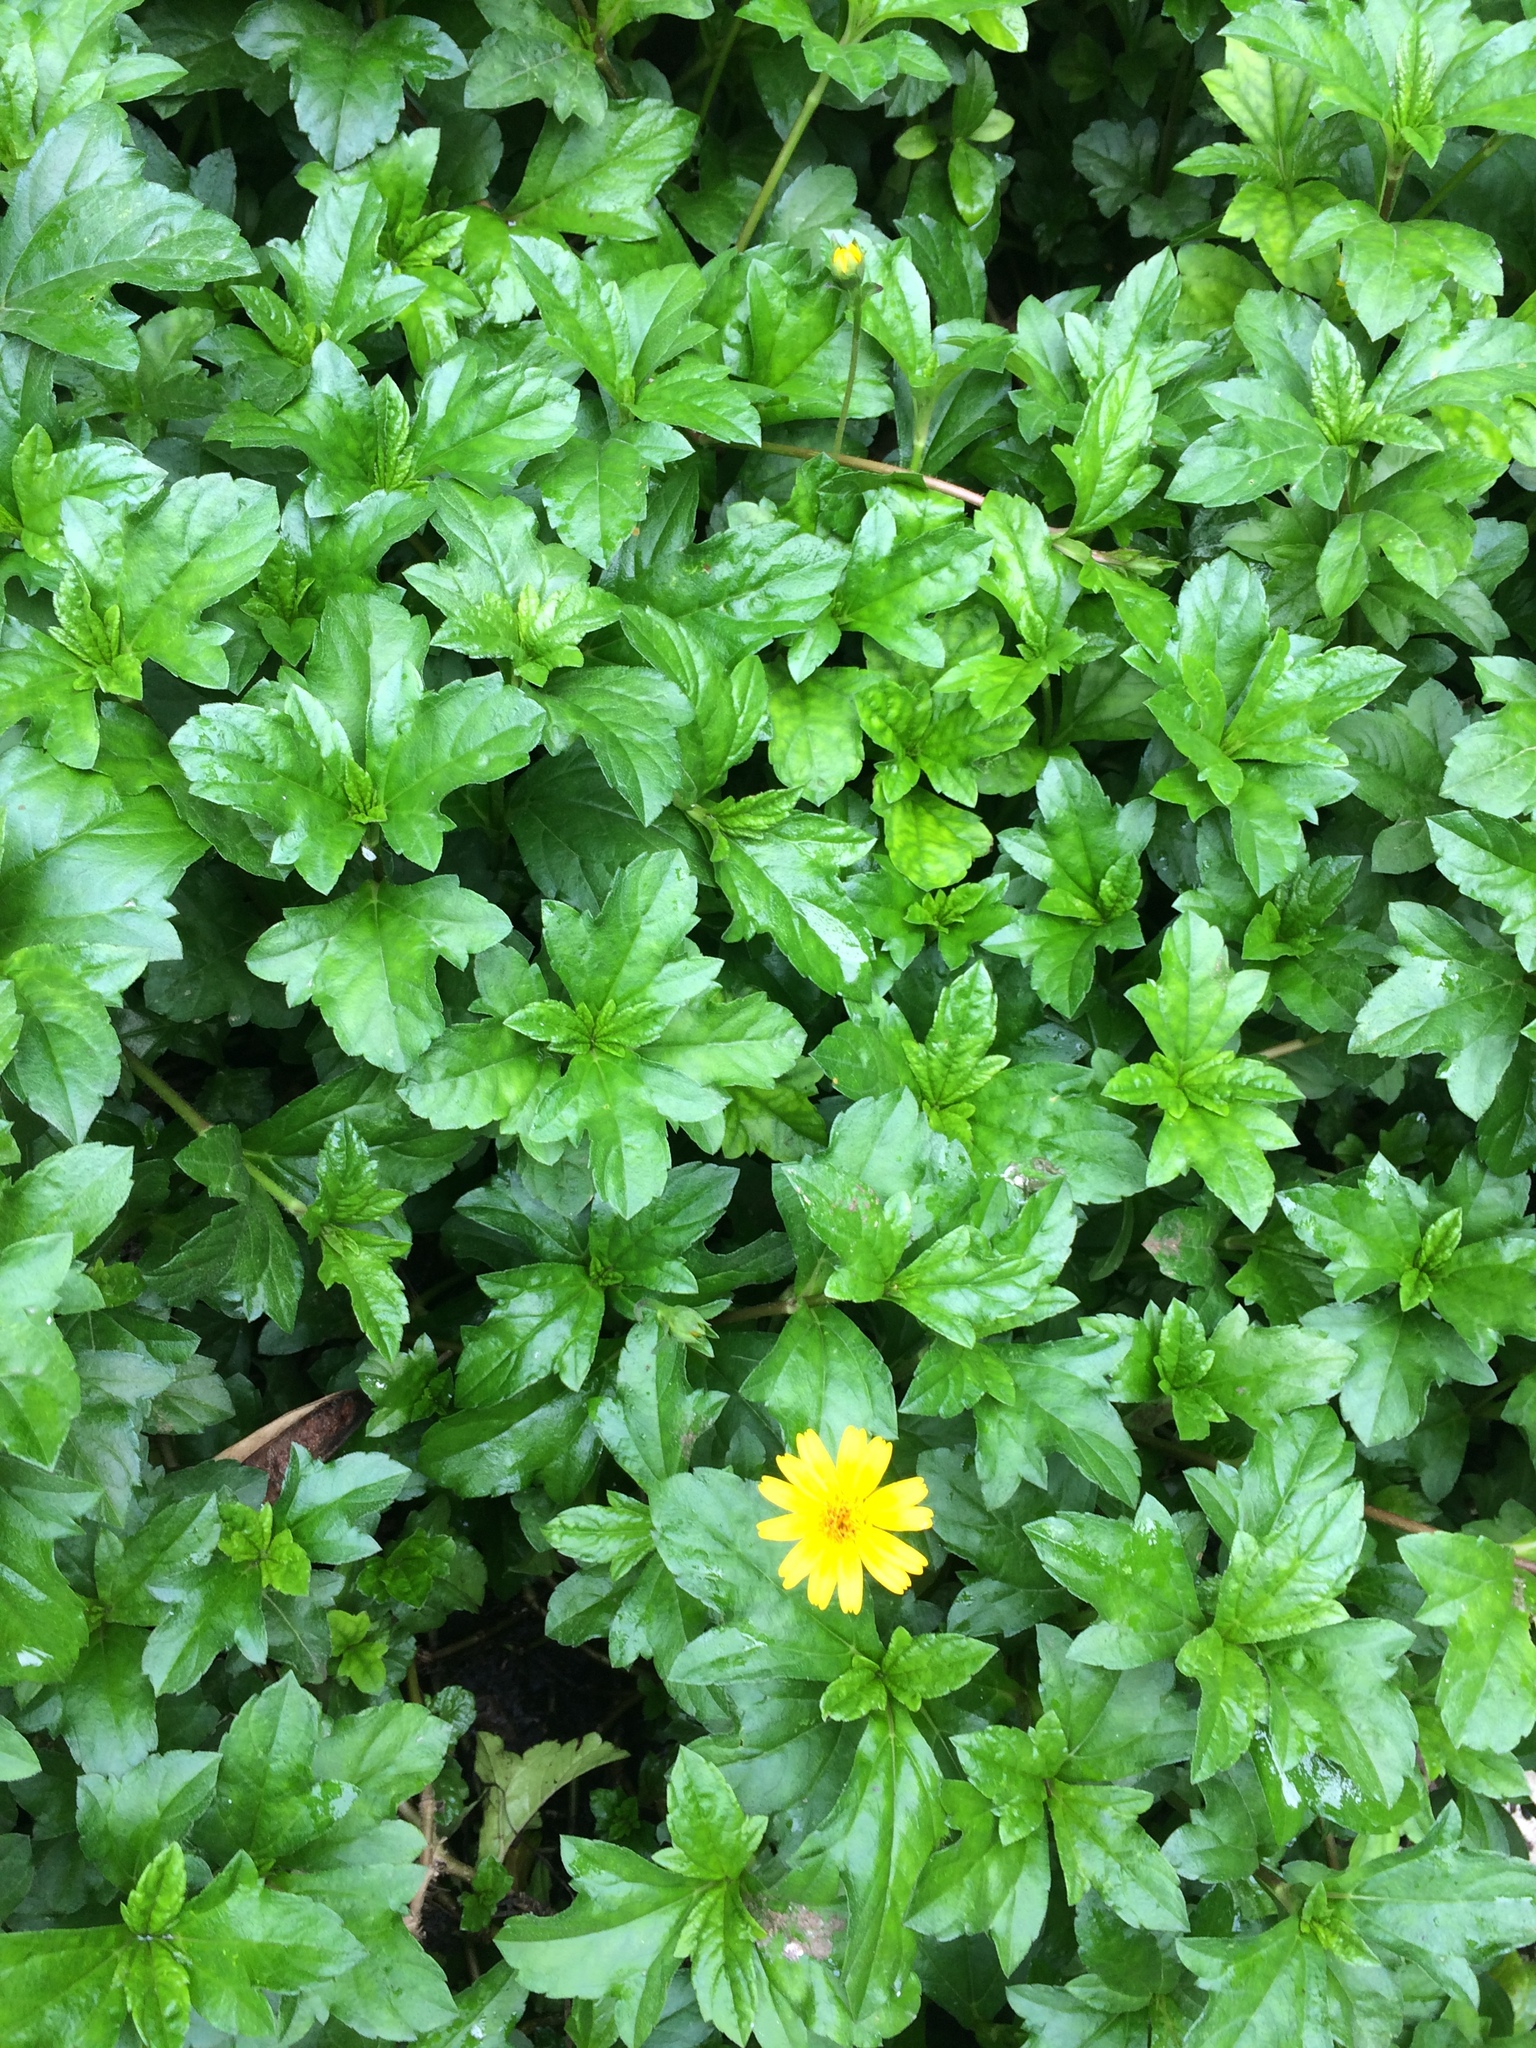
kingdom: Plantae
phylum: Tracheophyta
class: Magnoliopsida
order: Asterales
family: Asteraceae
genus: Sphagneticola
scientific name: Sphagneticola trilobata
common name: Bay biscayne creeping-oxeye
